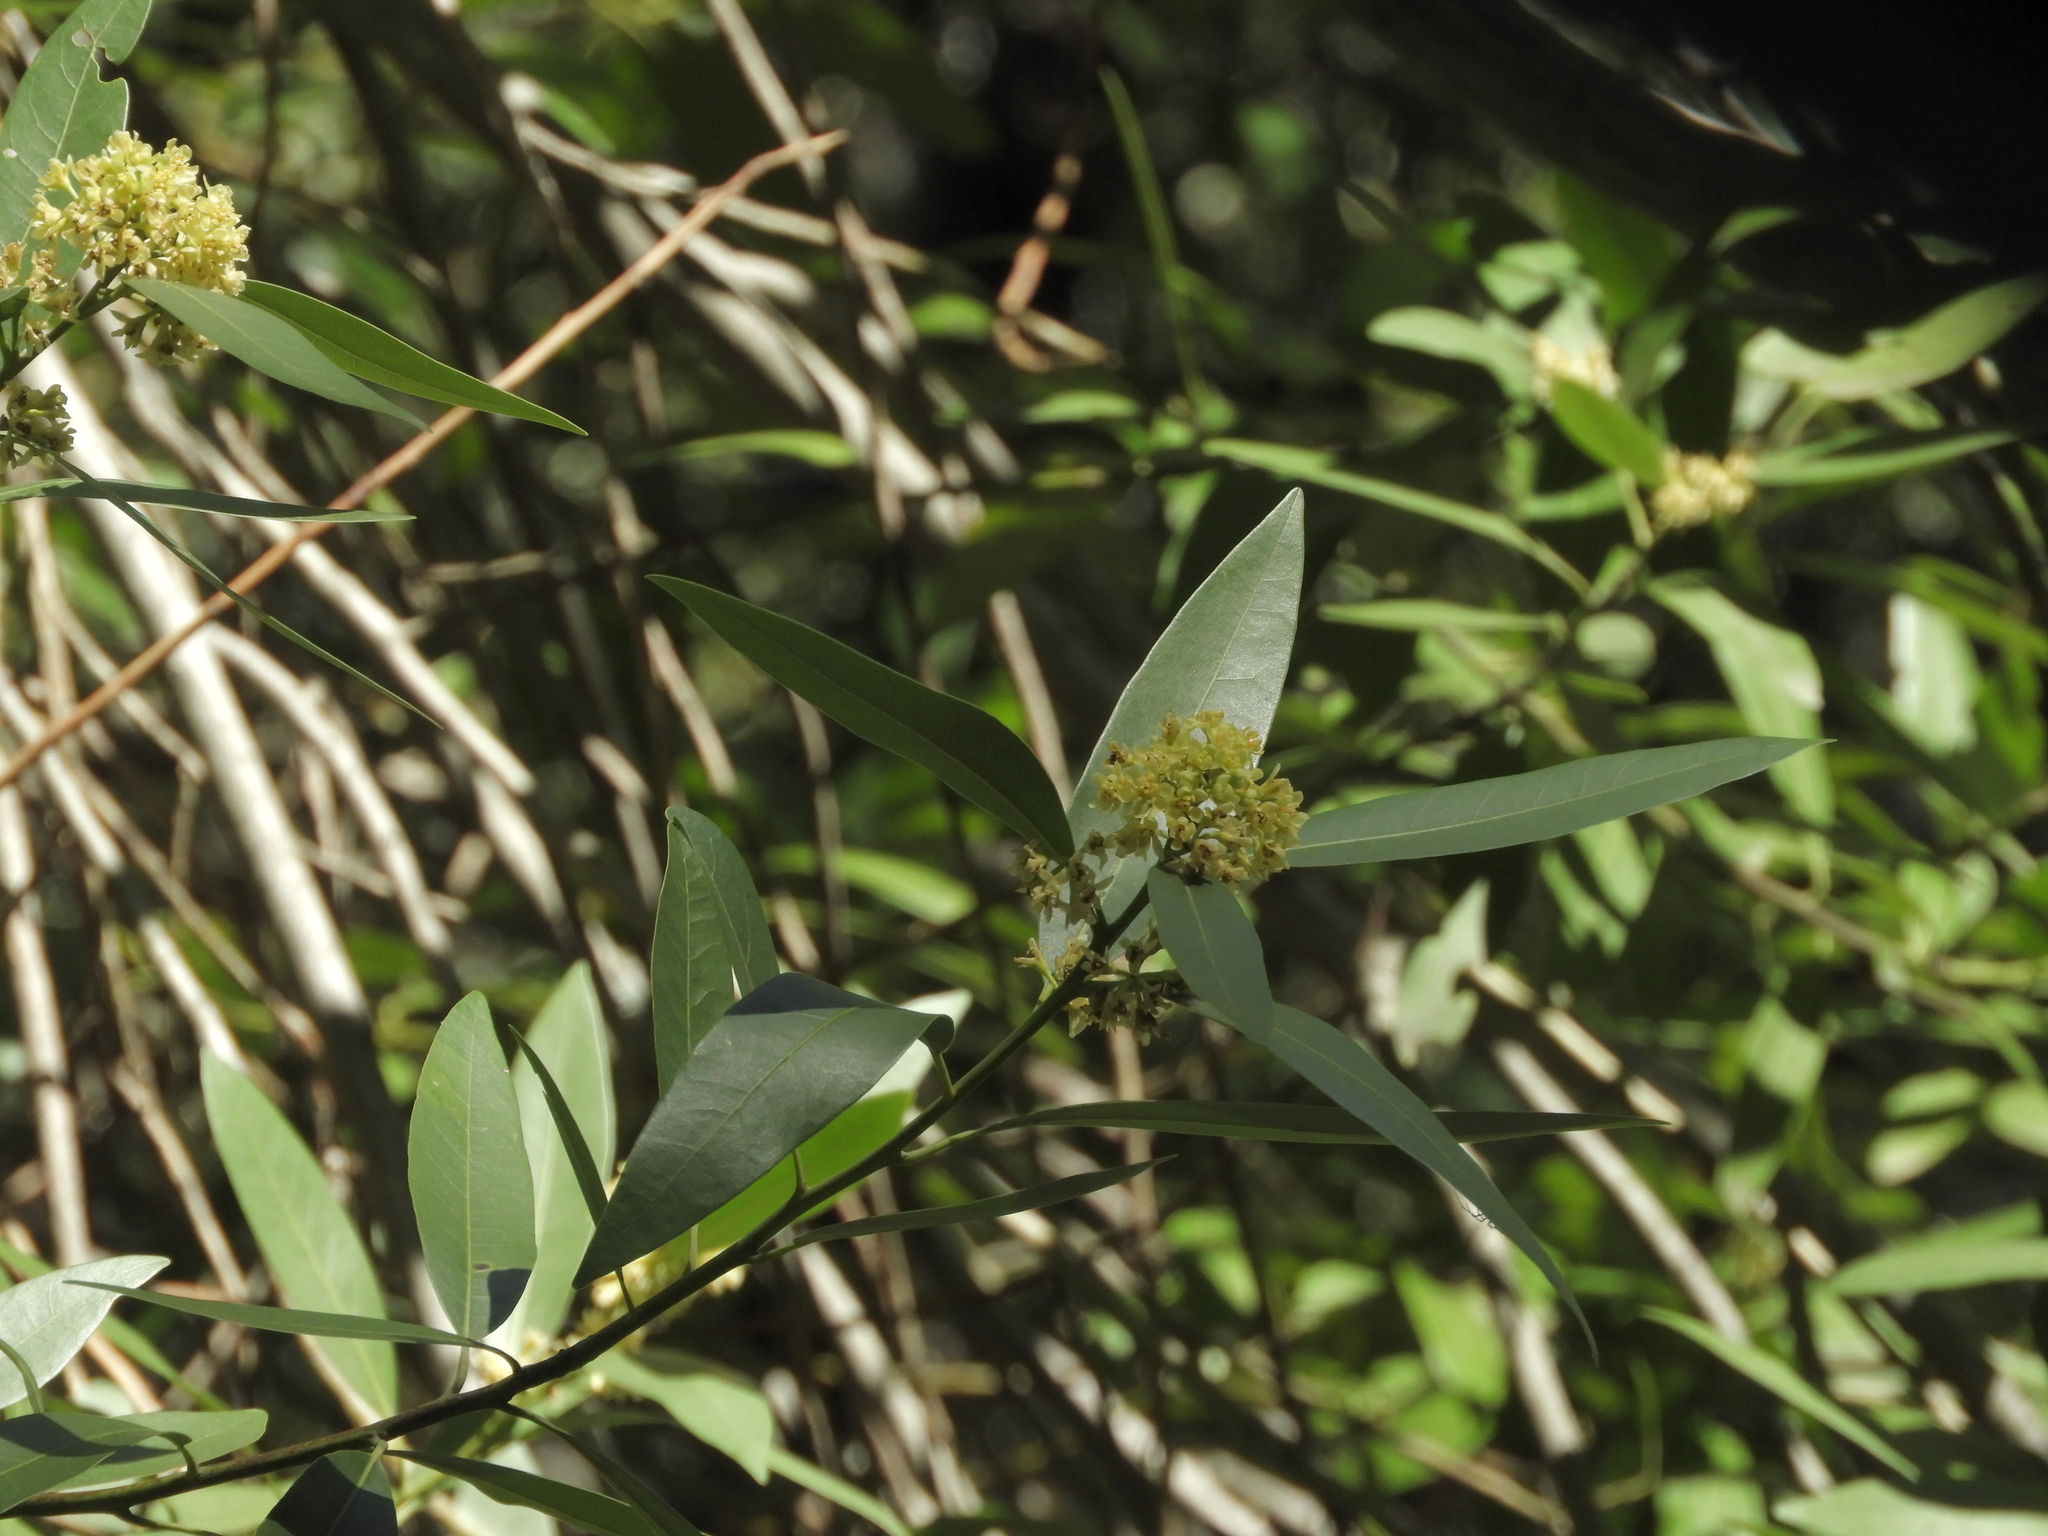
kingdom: Plantae
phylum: Tracheophyta
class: Magnoliopsida
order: Laurales
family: Lauraceae
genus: Umbellularia
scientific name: Umbellularia californica
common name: California bay
